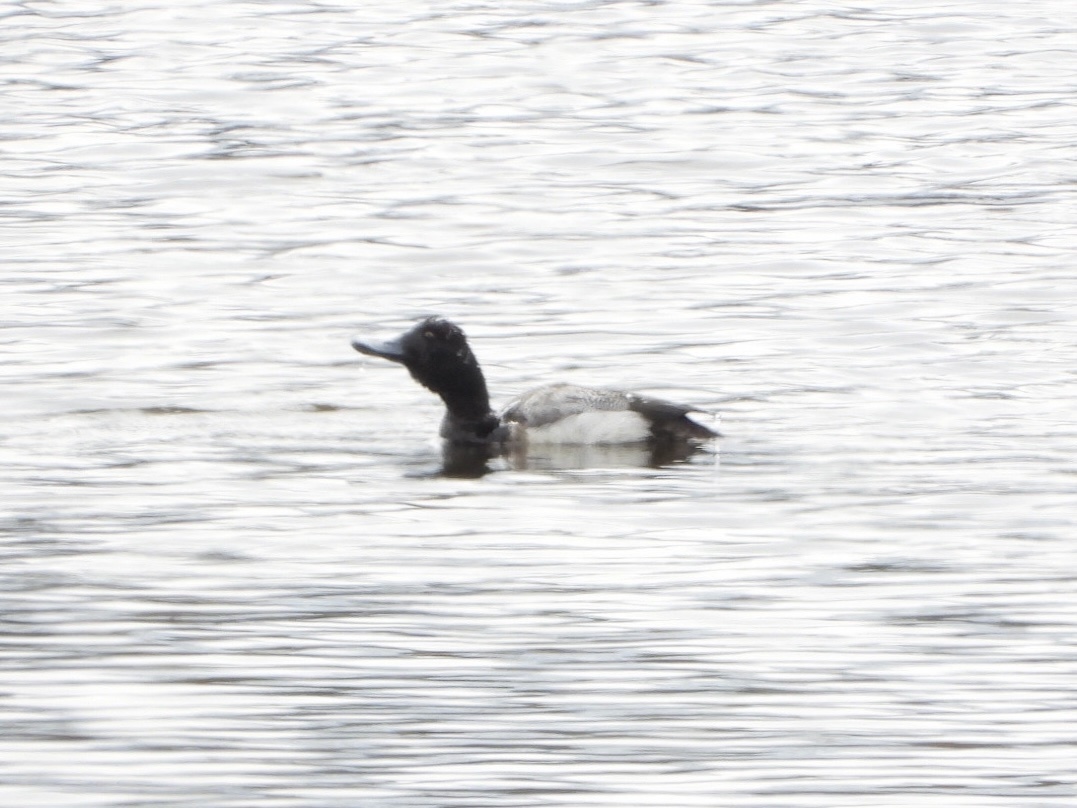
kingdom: Animalia
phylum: Chordata
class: Aves
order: Anseriformes
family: Anatidae
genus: Aythya
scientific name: Aythya affinis
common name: Lesser scaup
